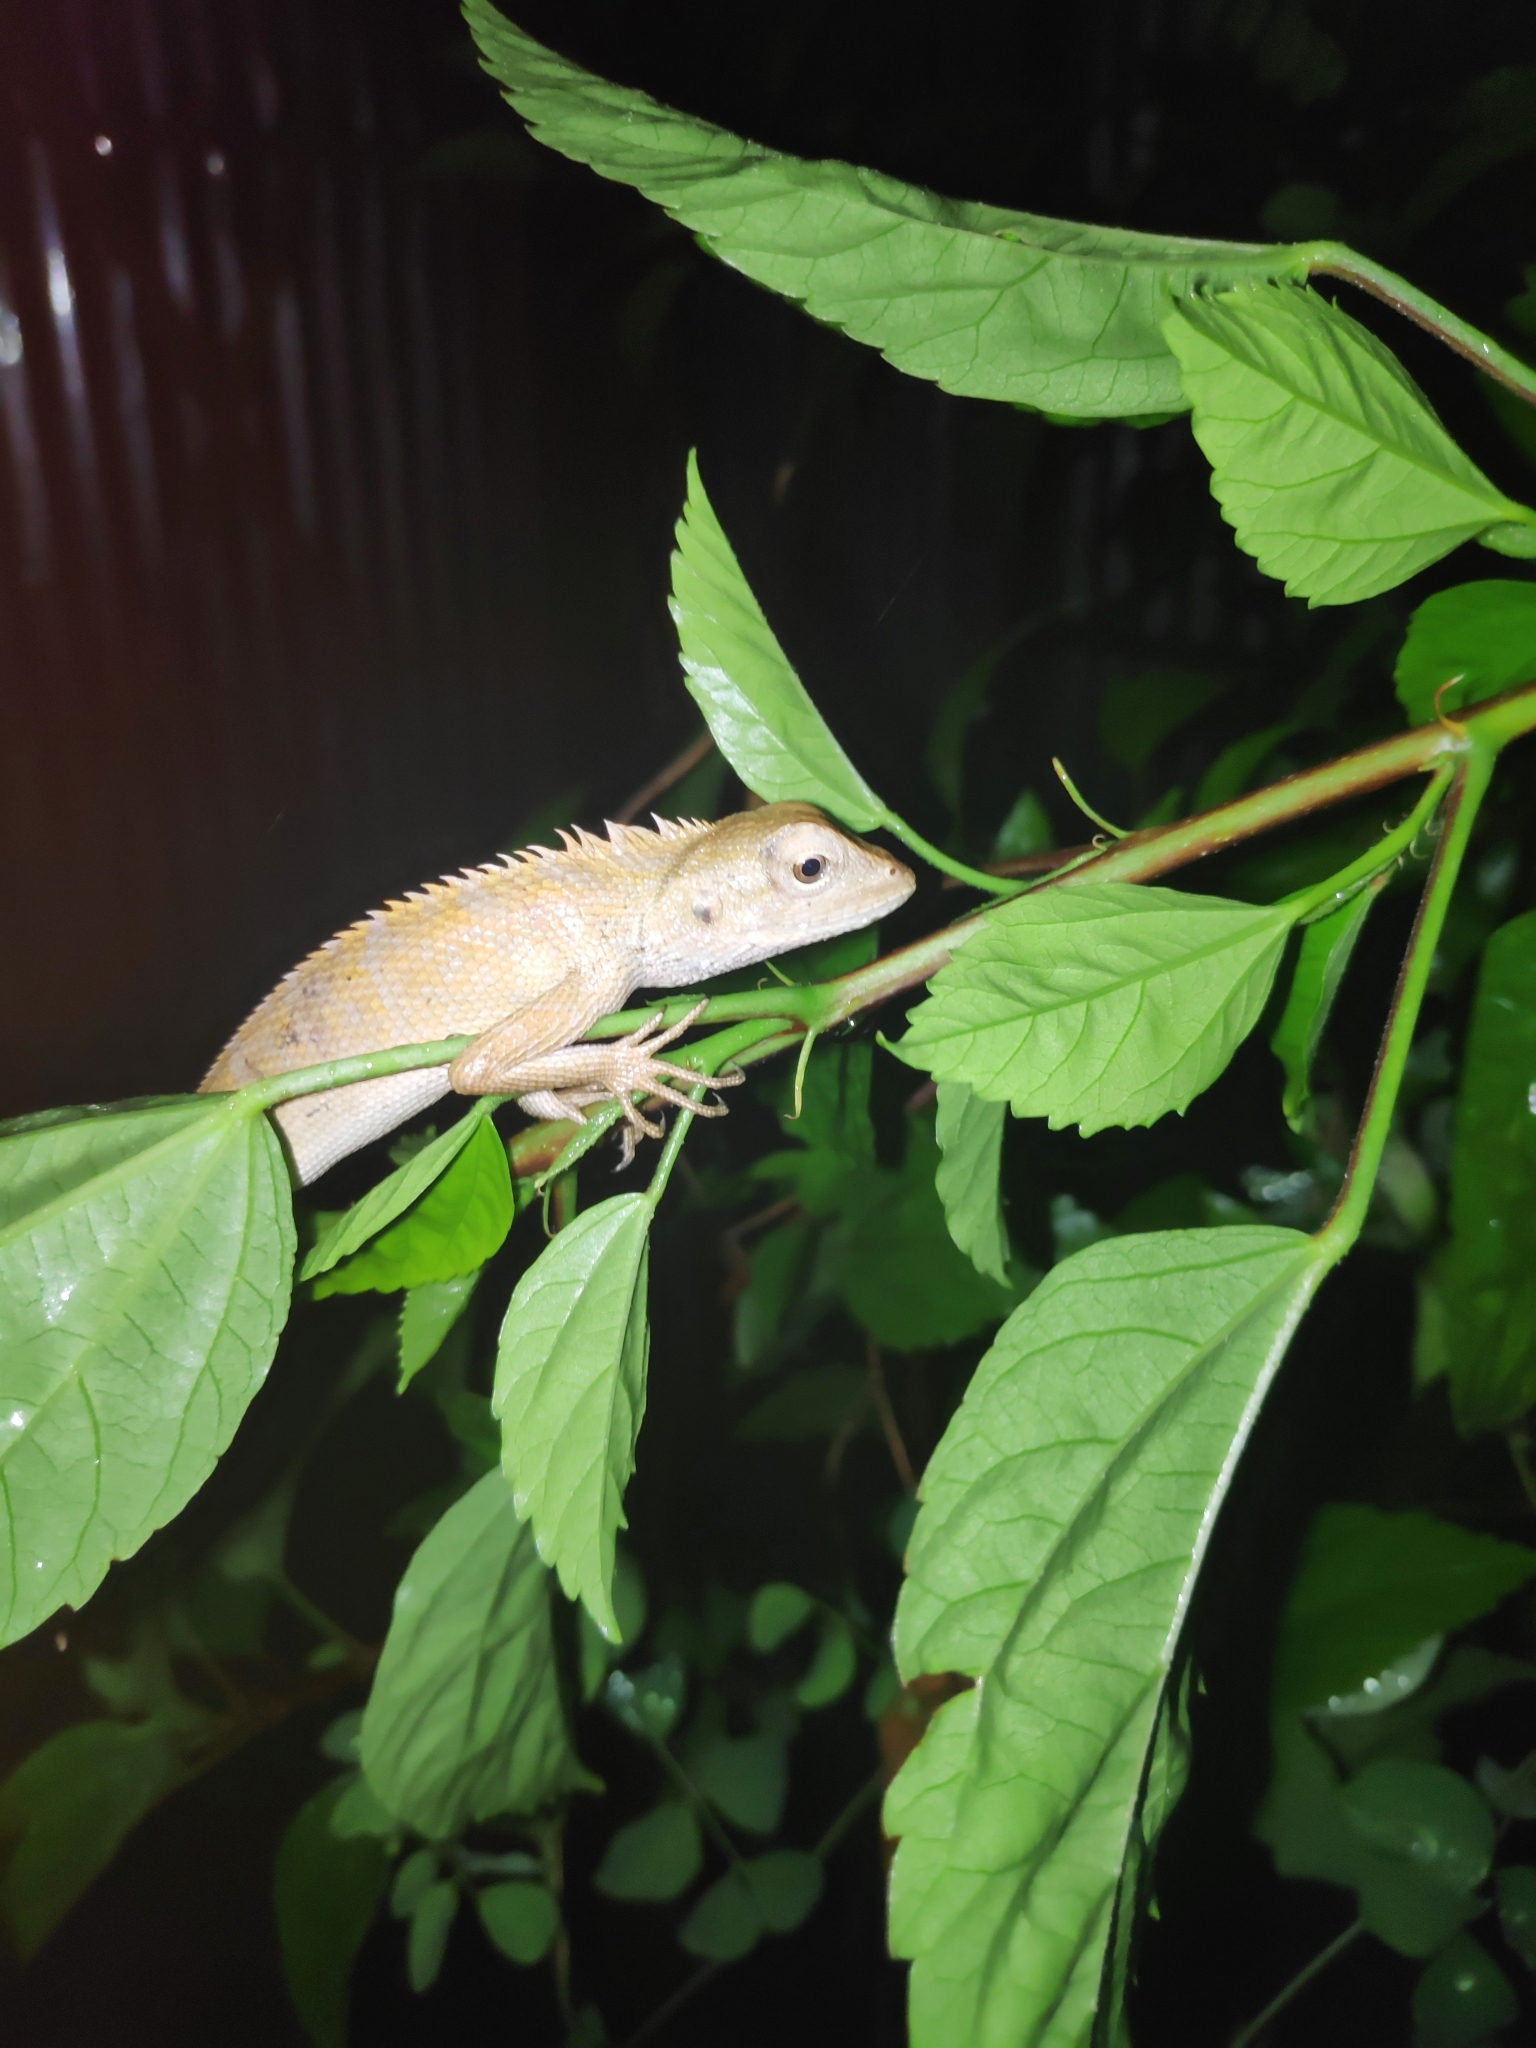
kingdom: Animalia
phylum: Chordata
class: Squamata
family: Agamidae
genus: Calotes
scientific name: Calotes versicolor
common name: Oriental garden lizard
